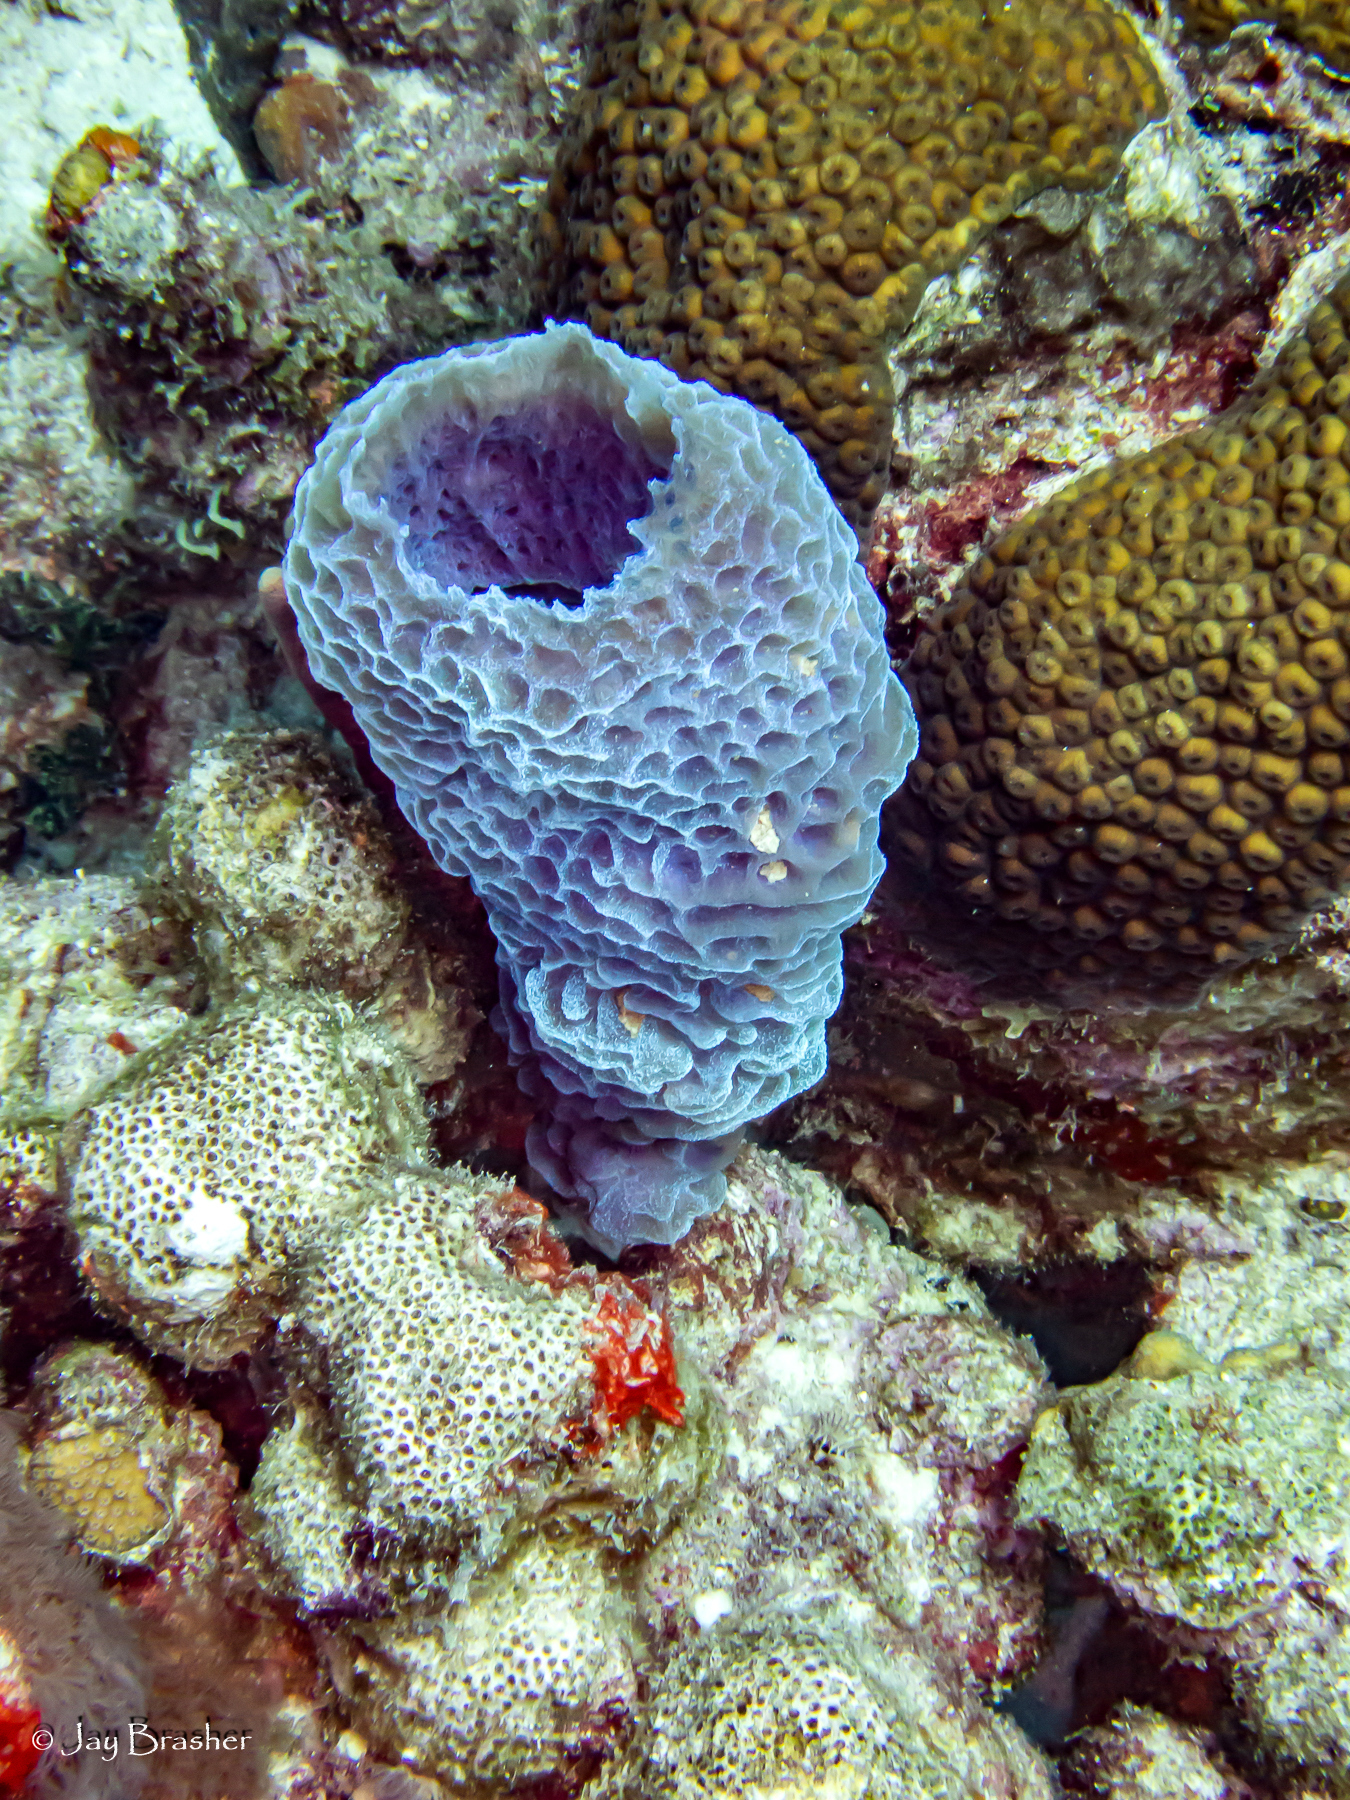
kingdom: Animalia
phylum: Porifera
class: Demospongiae
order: Haplosclerida
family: Callyspongiidae
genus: Callyspongia
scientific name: Callyspongia plicifera
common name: Azure vase sponge
